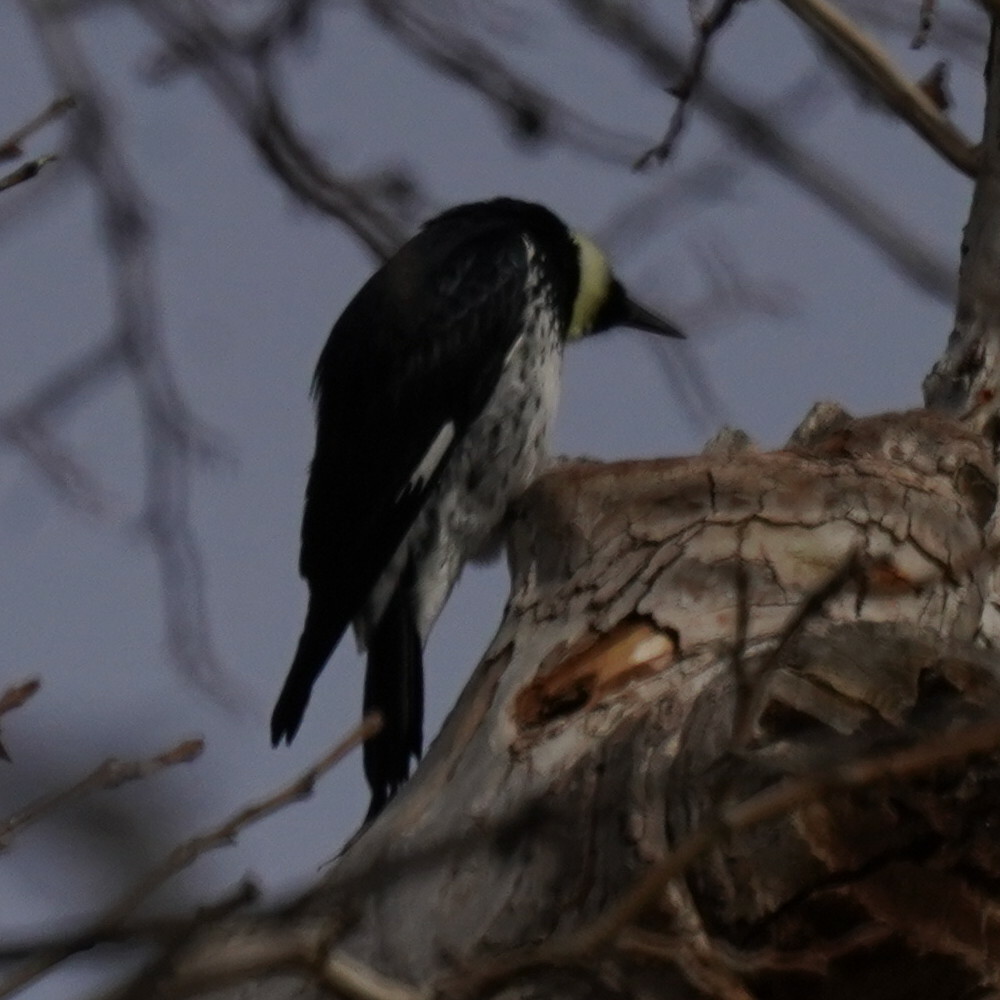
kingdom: Animalia
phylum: Chordata
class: Aves
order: Piciformes
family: Picidae
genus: Melanerpes
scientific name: Melanerpes formicivorus
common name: Acorn woodpecker
